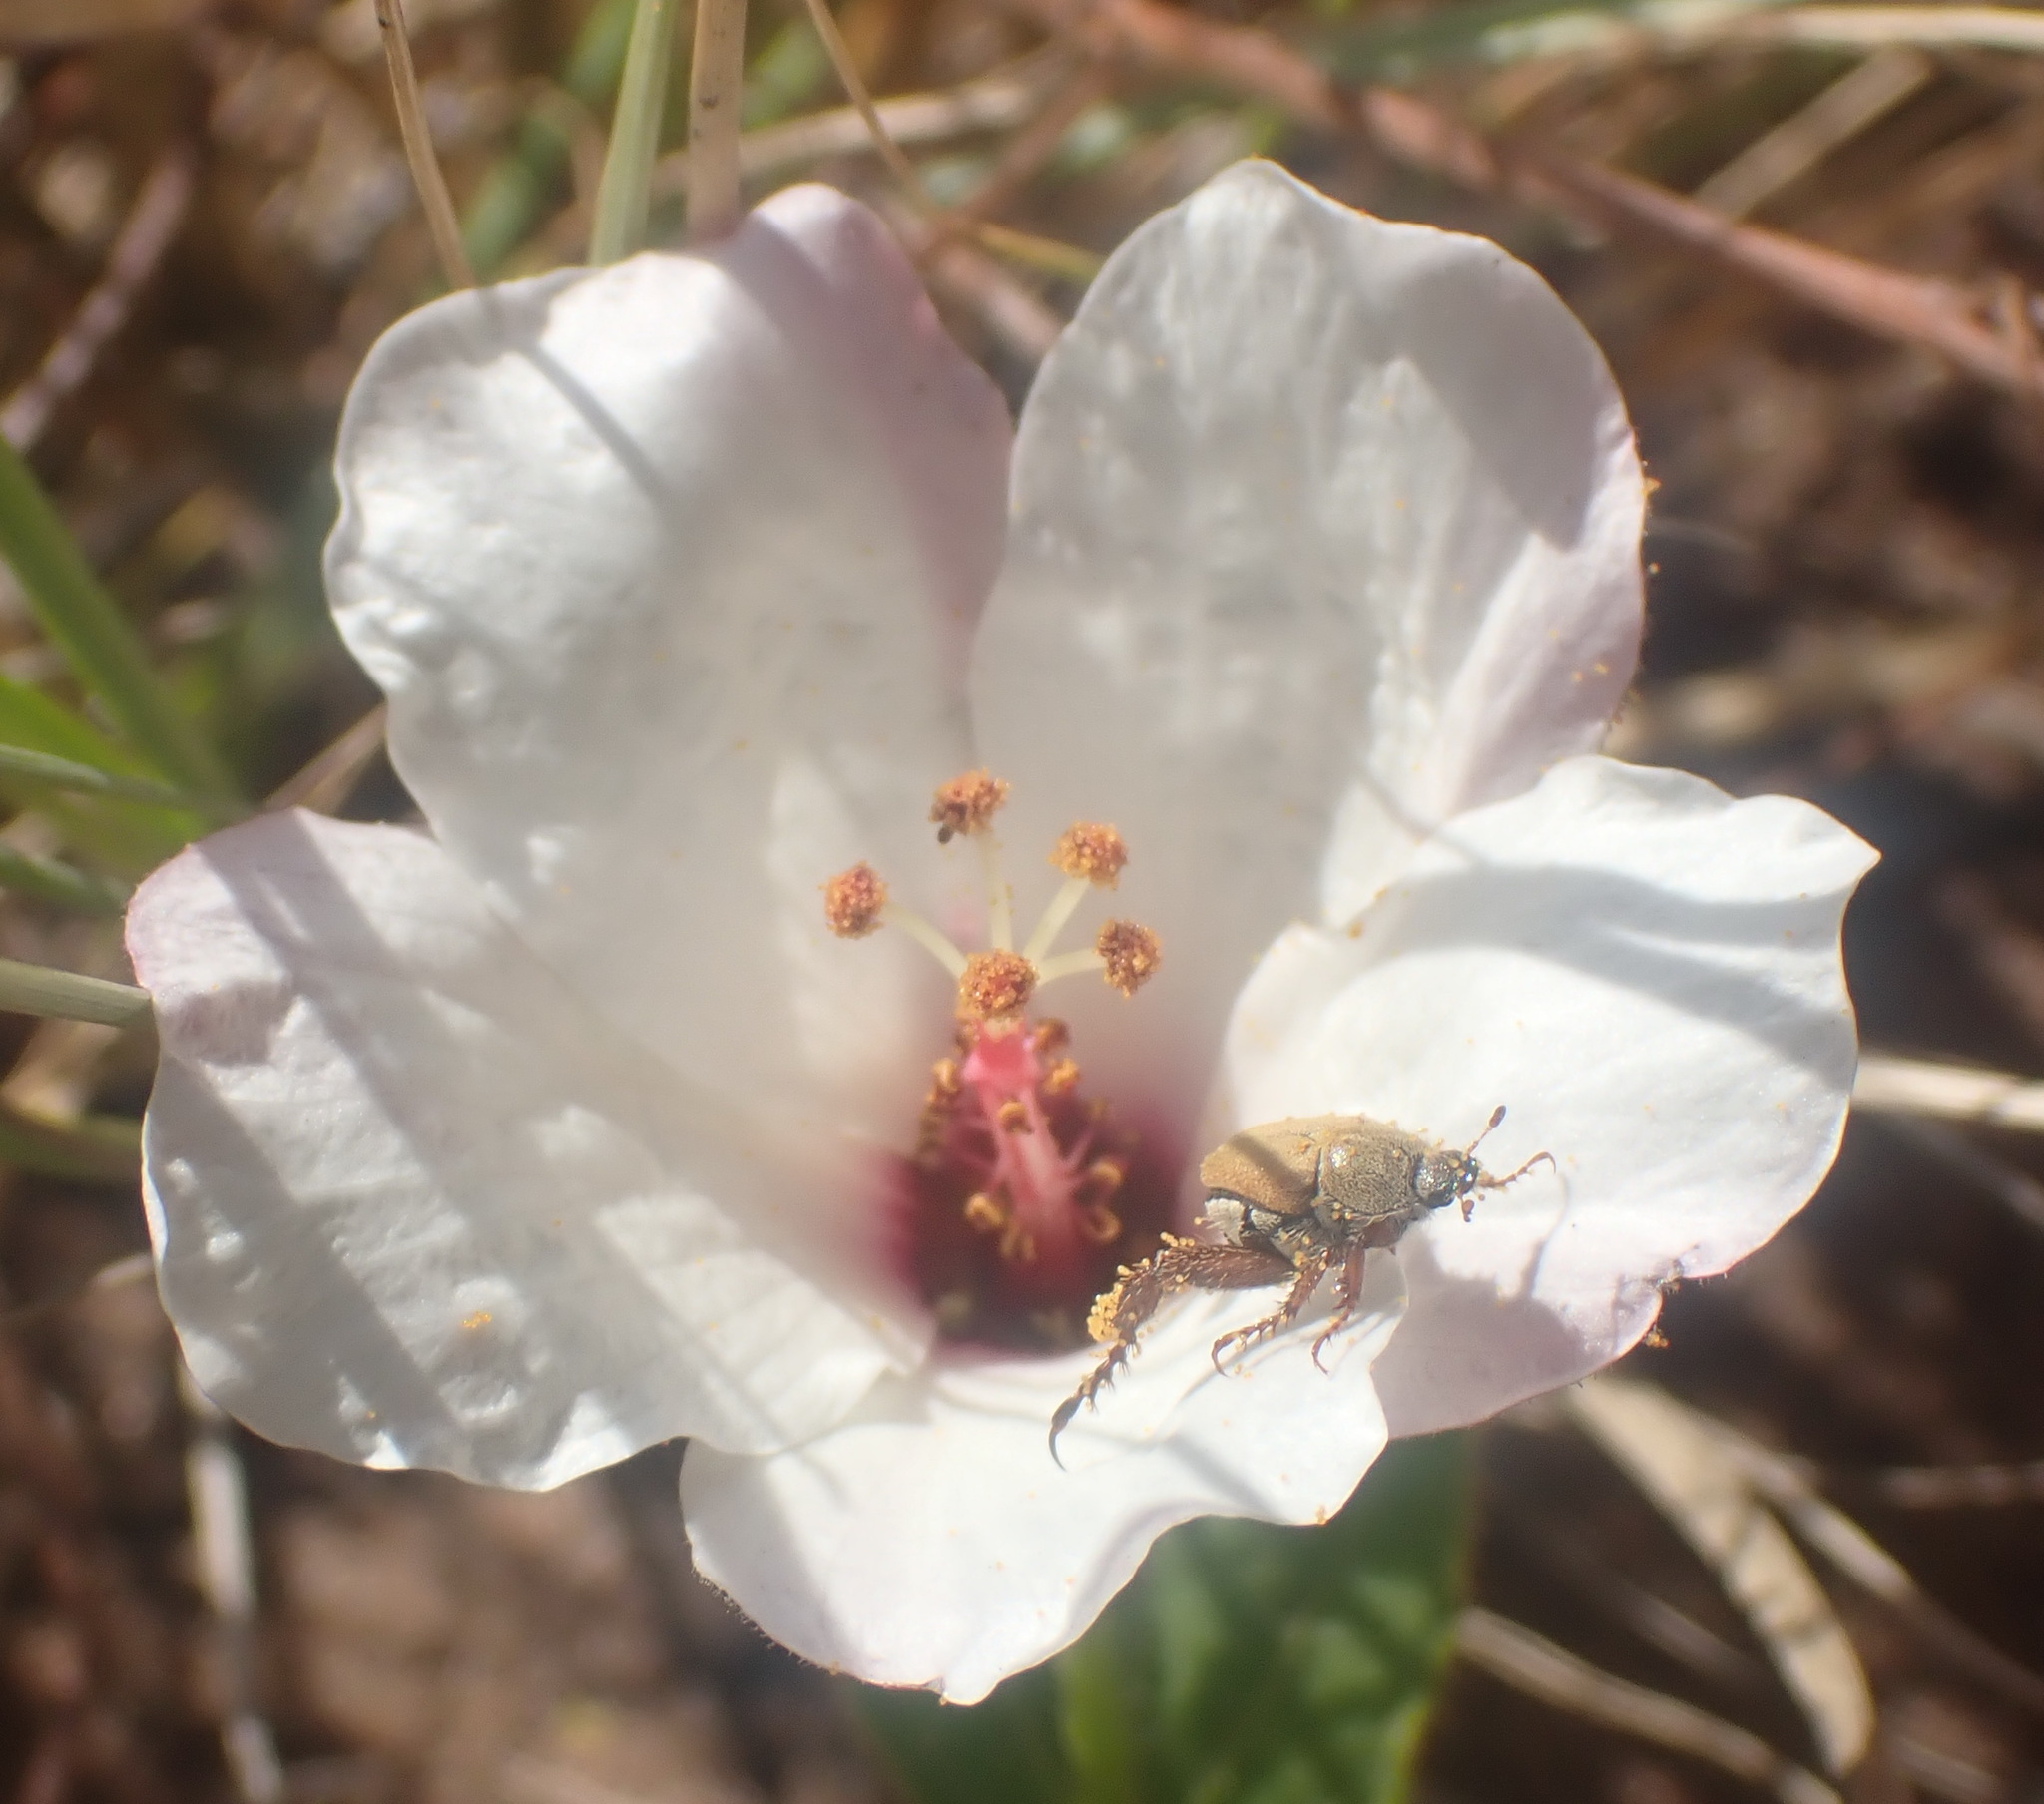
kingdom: Plantae
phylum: Tracheophyta
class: Magnoliopsida
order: Malvales
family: Malvaceae
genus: Hibiscus
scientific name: Hibiscus aethiopicus
